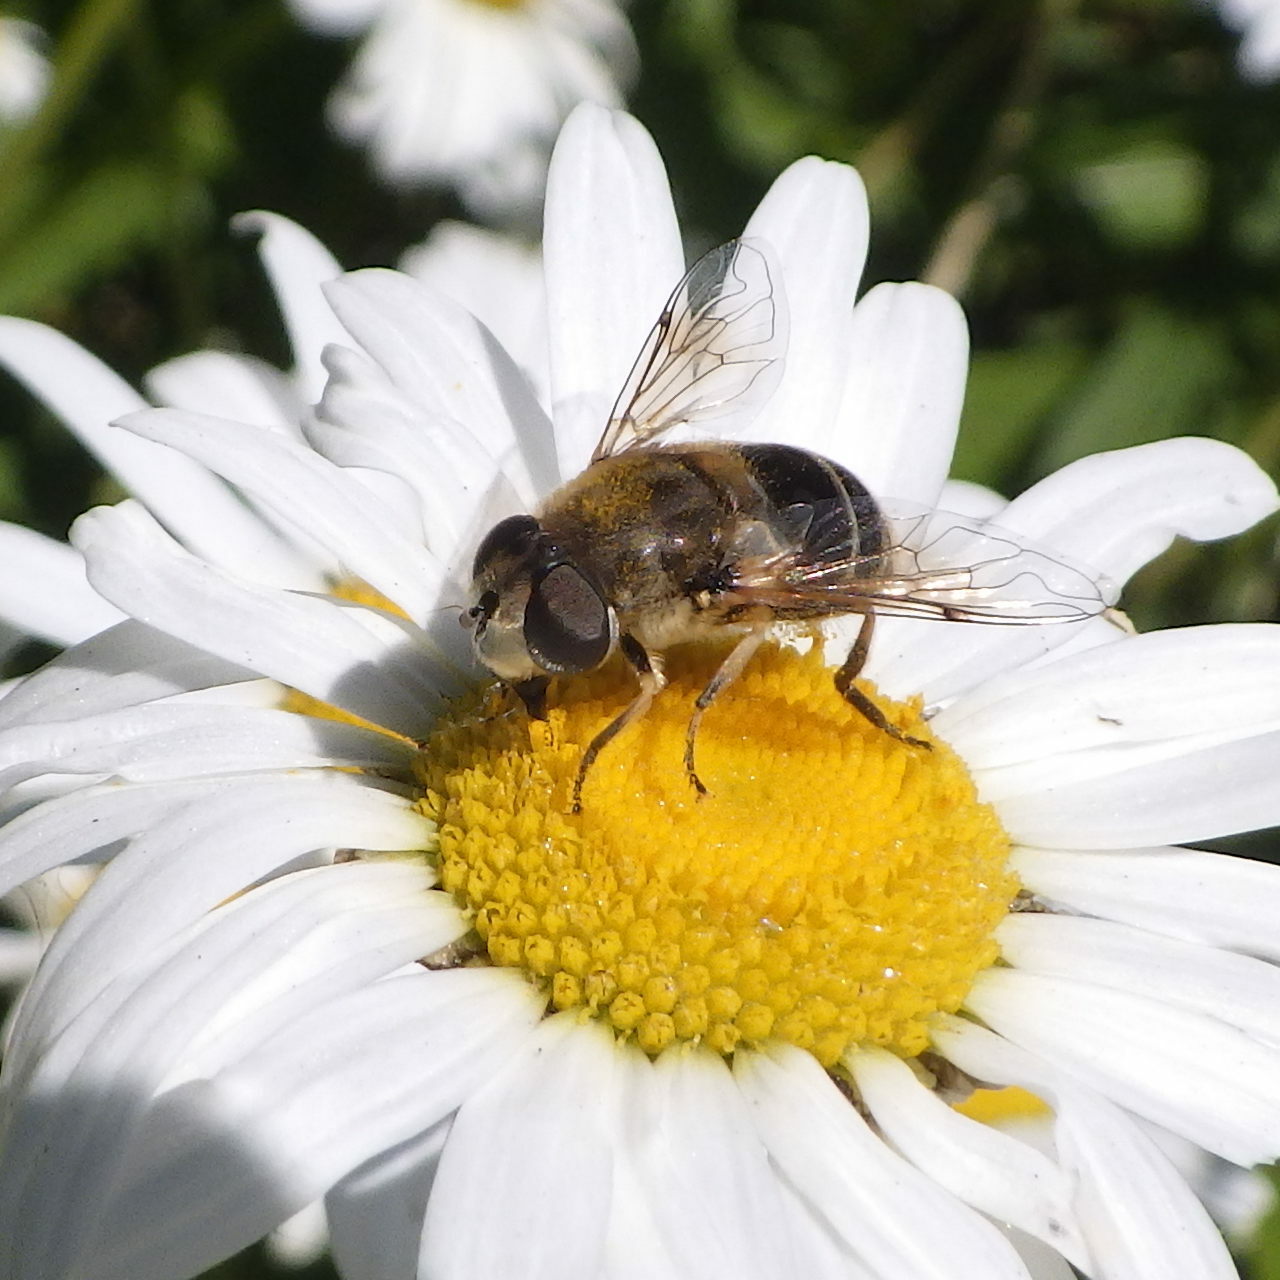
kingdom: Animalia
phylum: Arthropoda
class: Insecta
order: Diptera
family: Syrphidae
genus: Eristalis
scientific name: Eristalis arbustorum
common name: Hover fly
